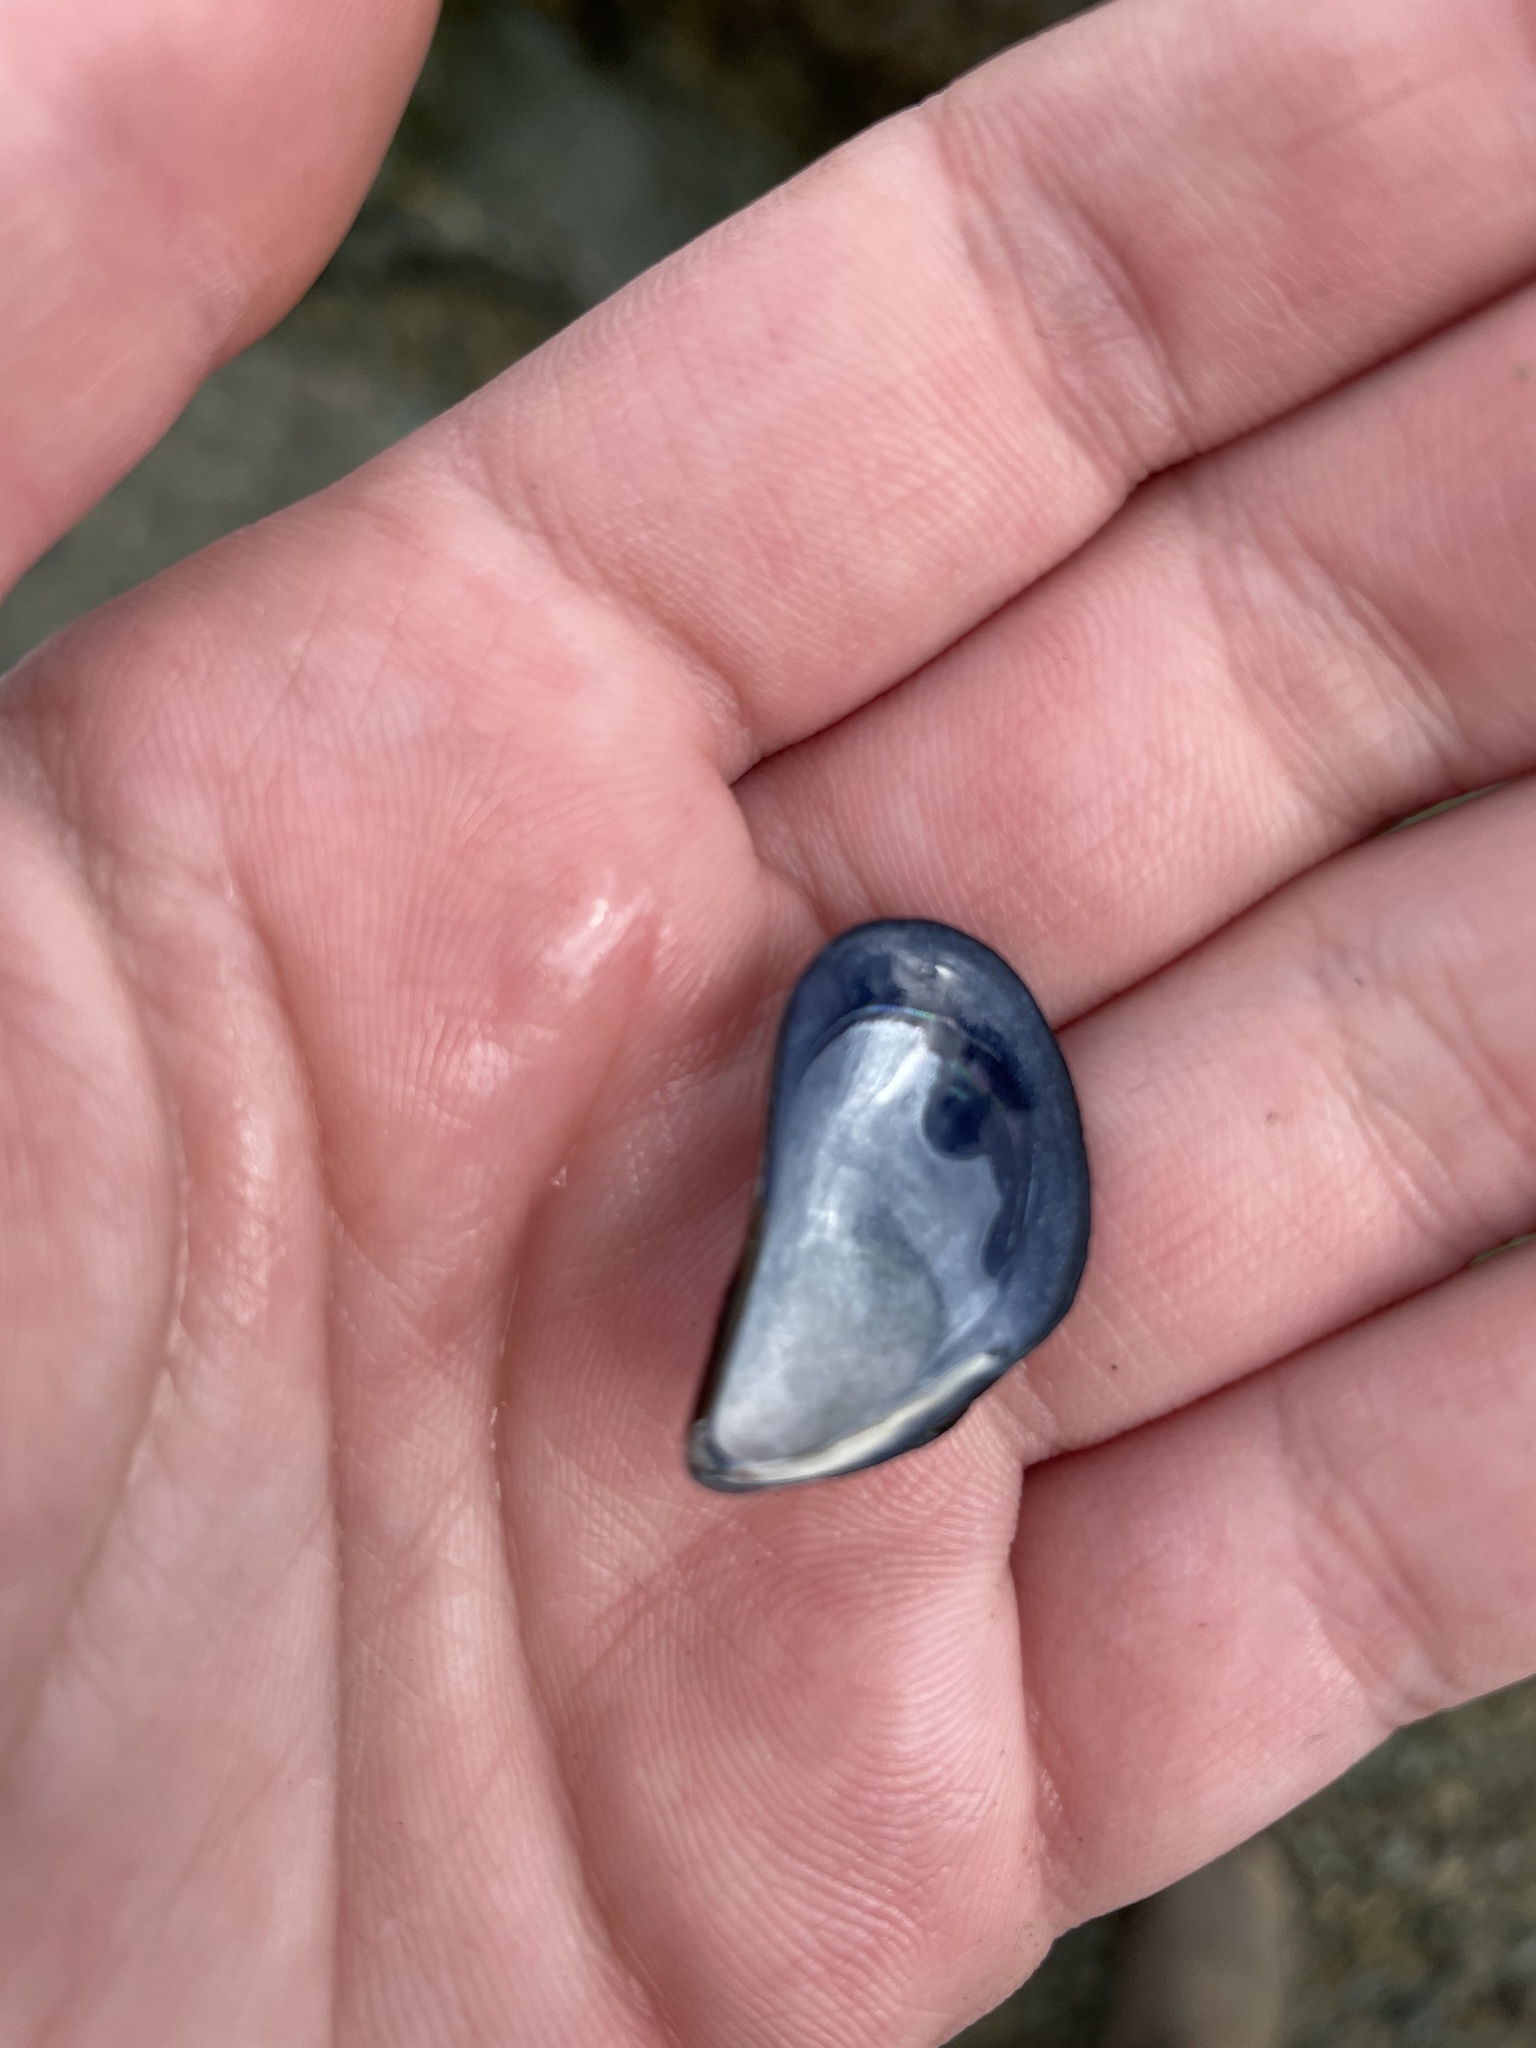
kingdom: Animalia
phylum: Mollusca
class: Bivalvia
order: Mytilida
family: Mytilidae
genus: Mytilus
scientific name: Mytilus edulis
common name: Blue mussel
